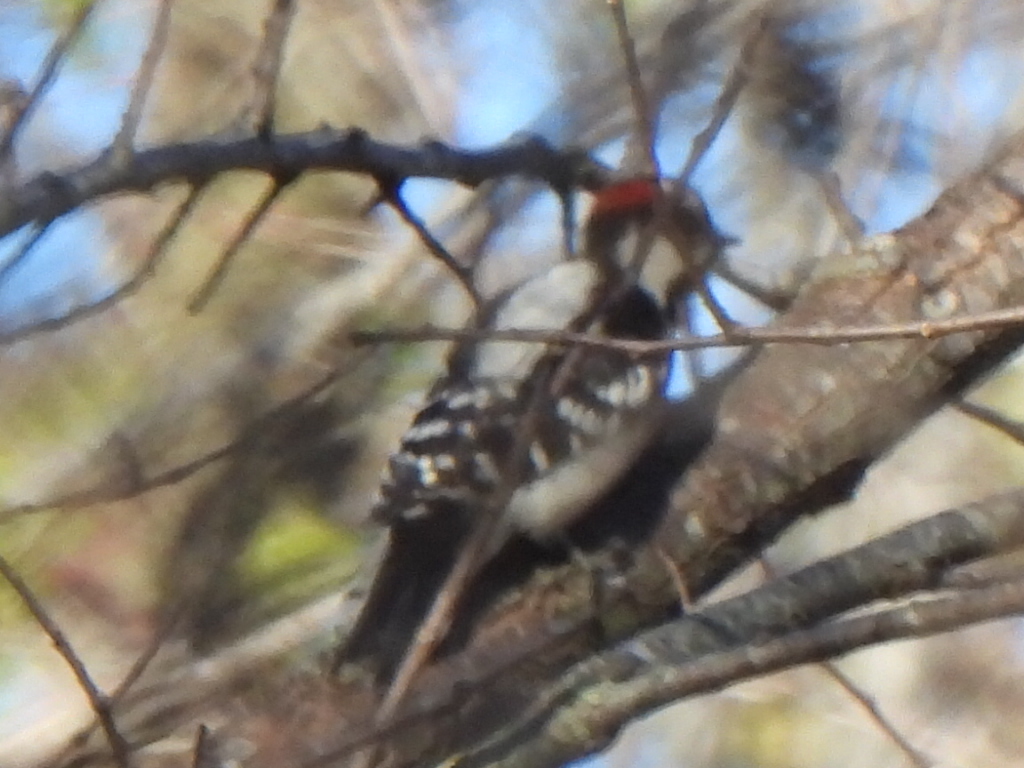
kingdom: Animalia
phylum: Chordata
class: Aves
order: Piciformes
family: Picidae
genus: Dryobates
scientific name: Dryobates pubescens
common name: Downy woodpecker
